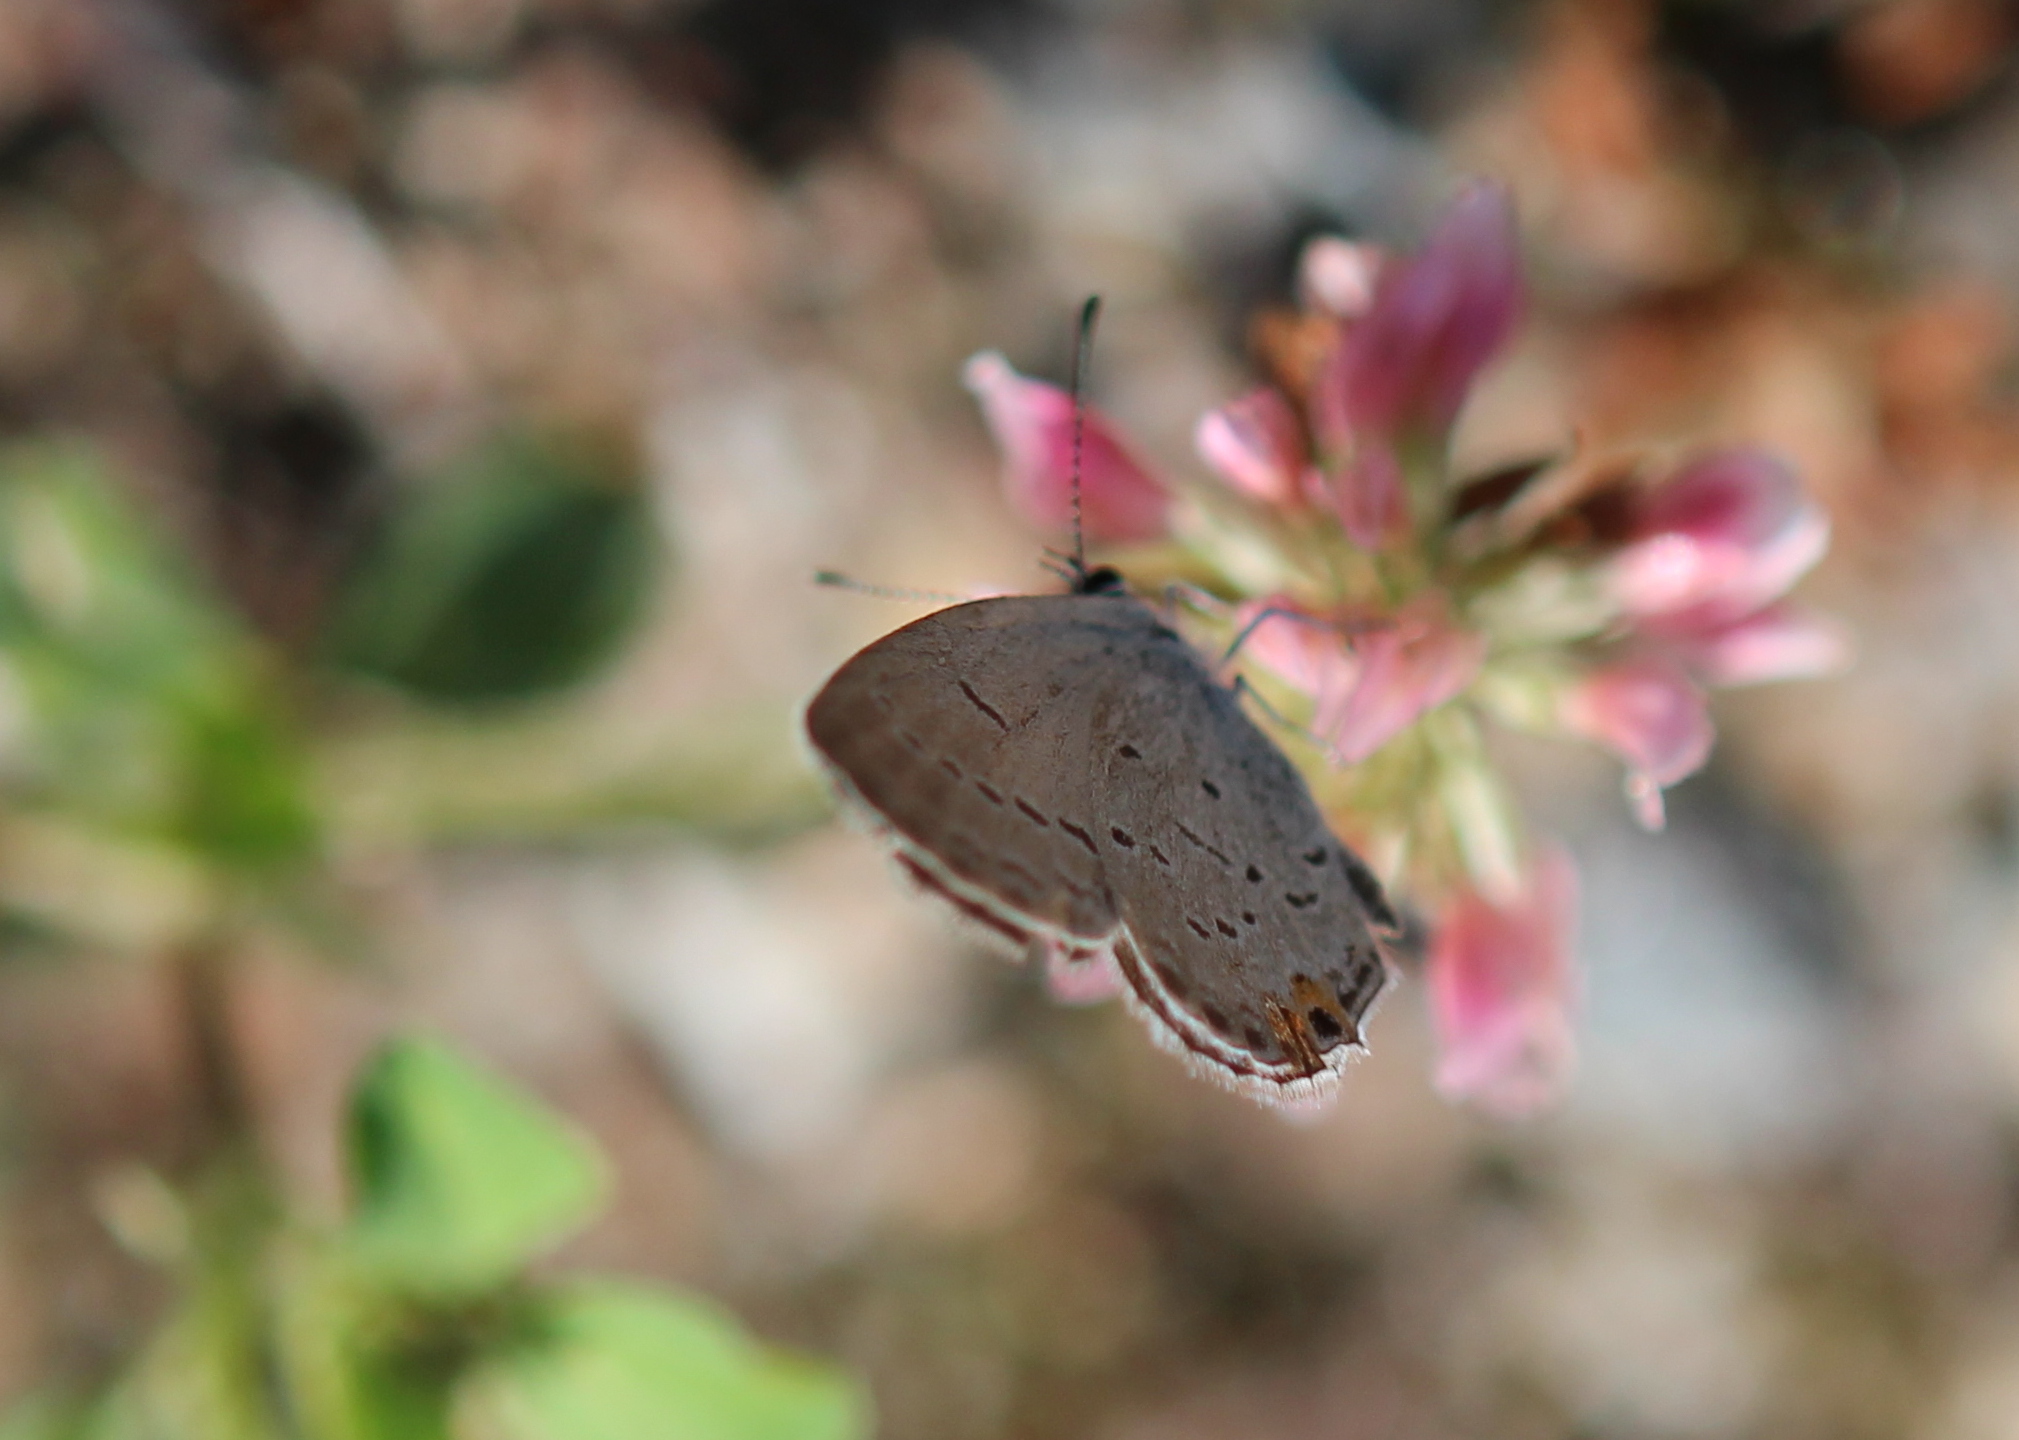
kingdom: Animalia
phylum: Arthropoda
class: Insecta
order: Lepidoptera
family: Lycaenidae
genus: Elkalyce
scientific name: Elkalyce comyntas
